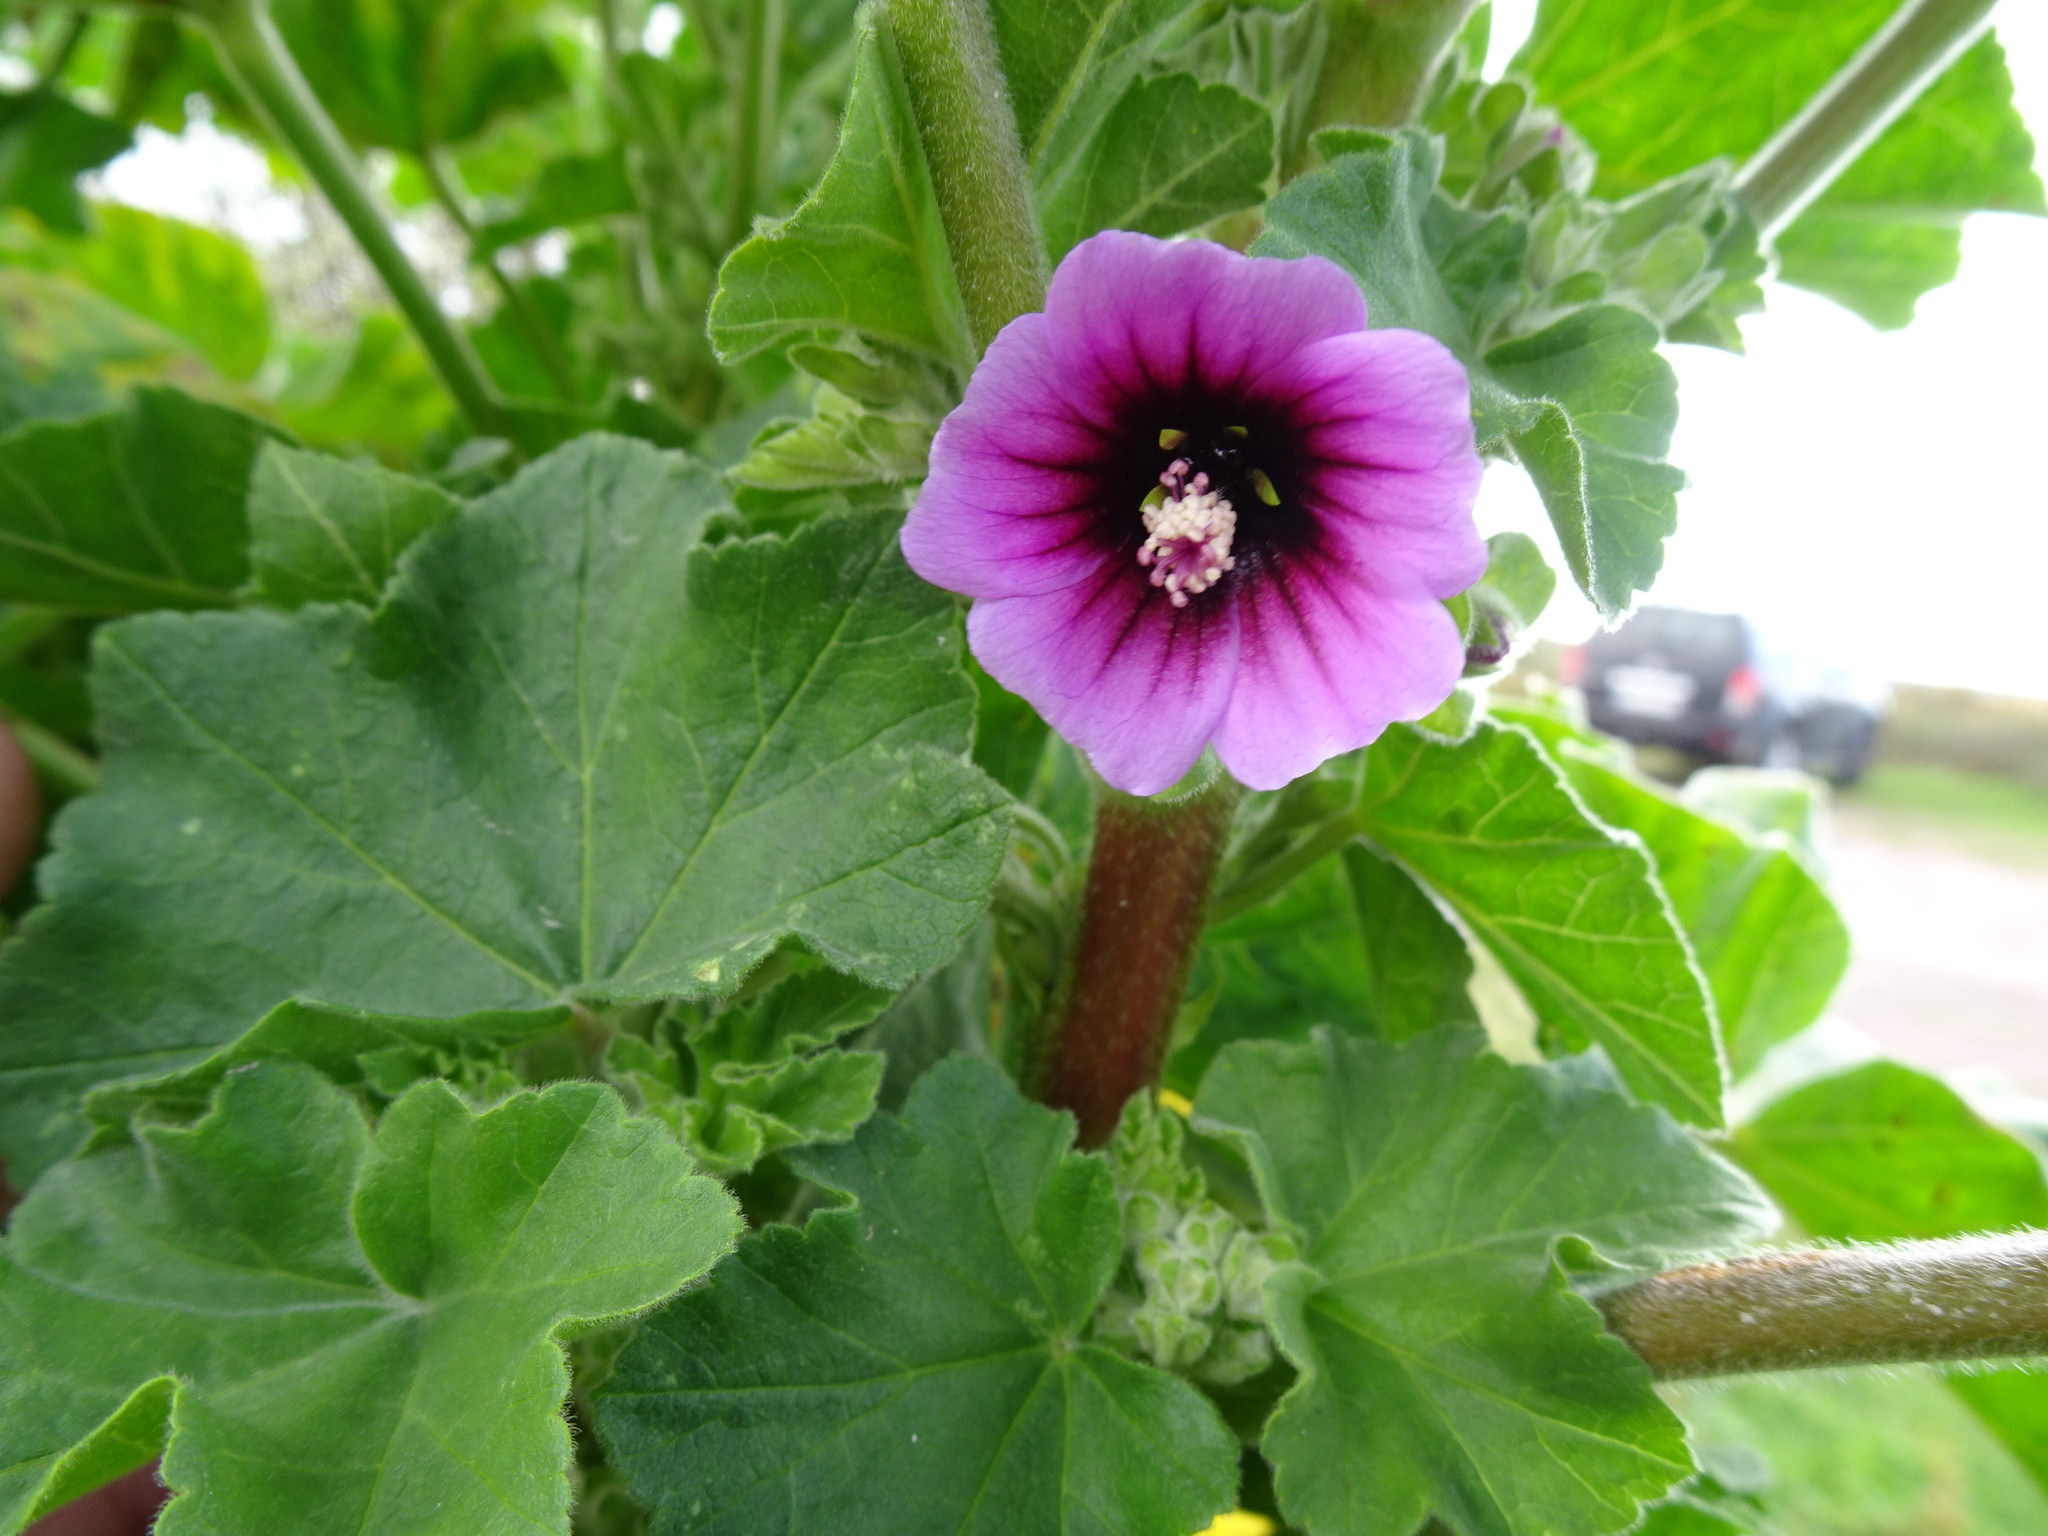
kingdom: Plantae
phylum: Tracheophyta
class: Magnoliopsida
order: Malvales
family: Malvaceae
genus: Malva
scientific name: Malva arborea
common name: Tree mallow
